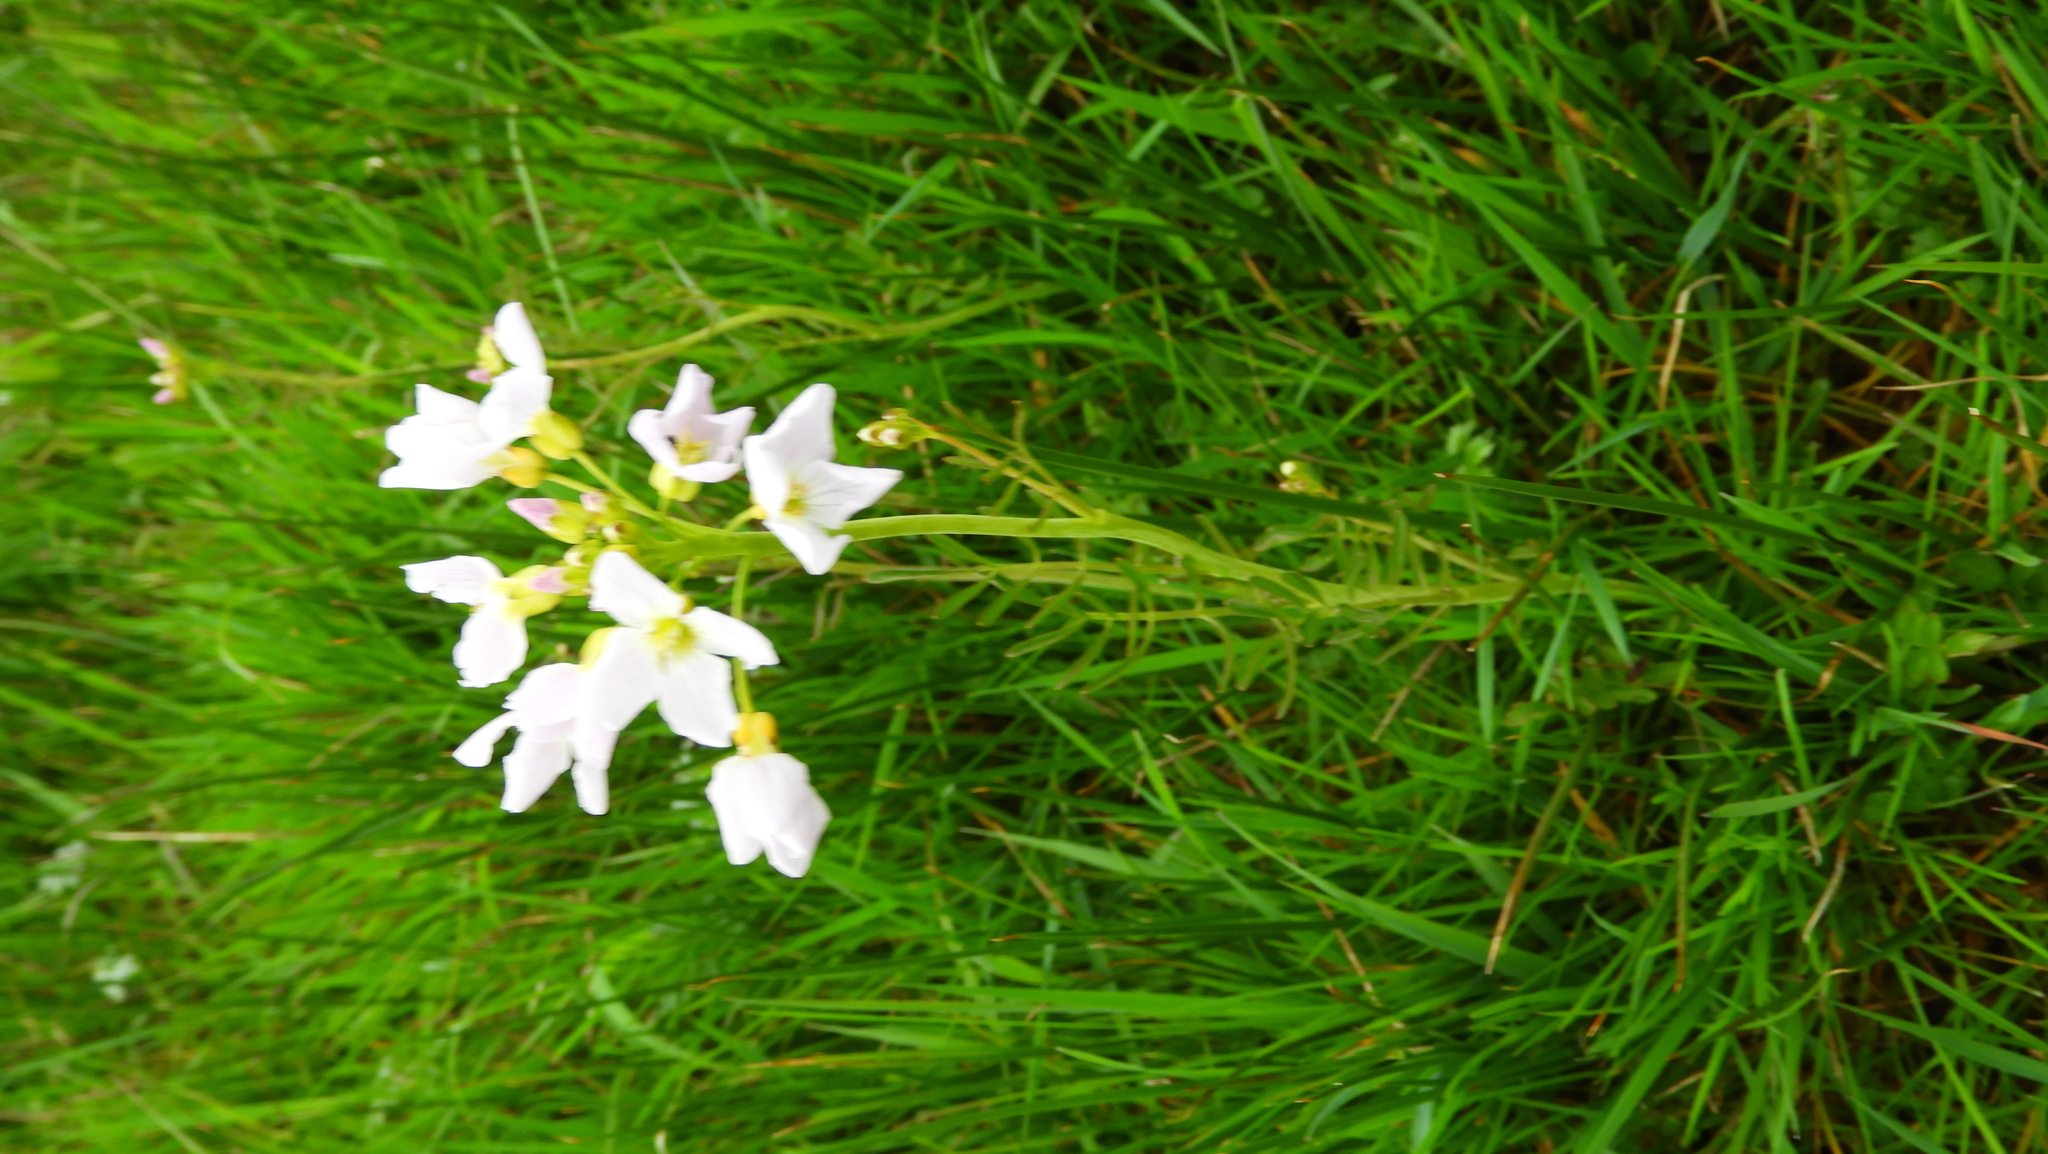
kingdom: Plantae
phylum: Tracheophyta
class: Magnoliopsida
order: Brassicales
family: Brassicaceae
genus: Cardamine
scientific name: Cardamine pratensis
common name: Cuckoo flower
